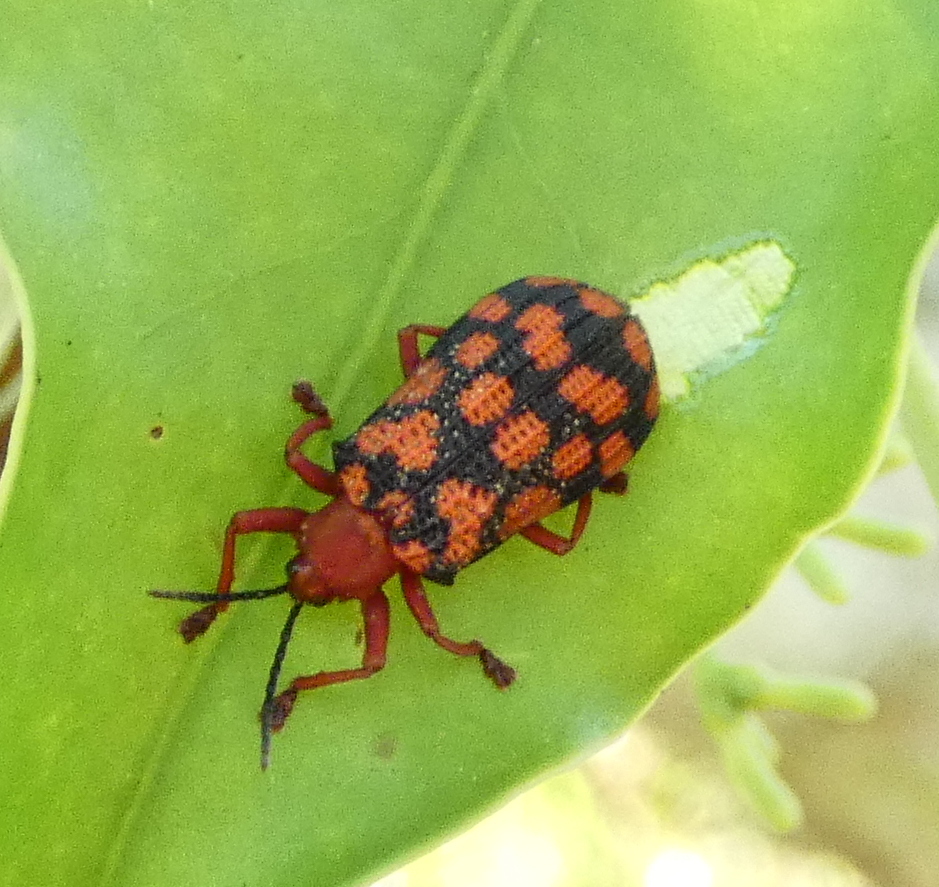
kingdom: Animalia
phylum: Arthropoda
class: Insecta
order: Coleoptera
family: Chrysomelidae
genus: Sceloenopla
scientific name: Sceloenopla maculata
